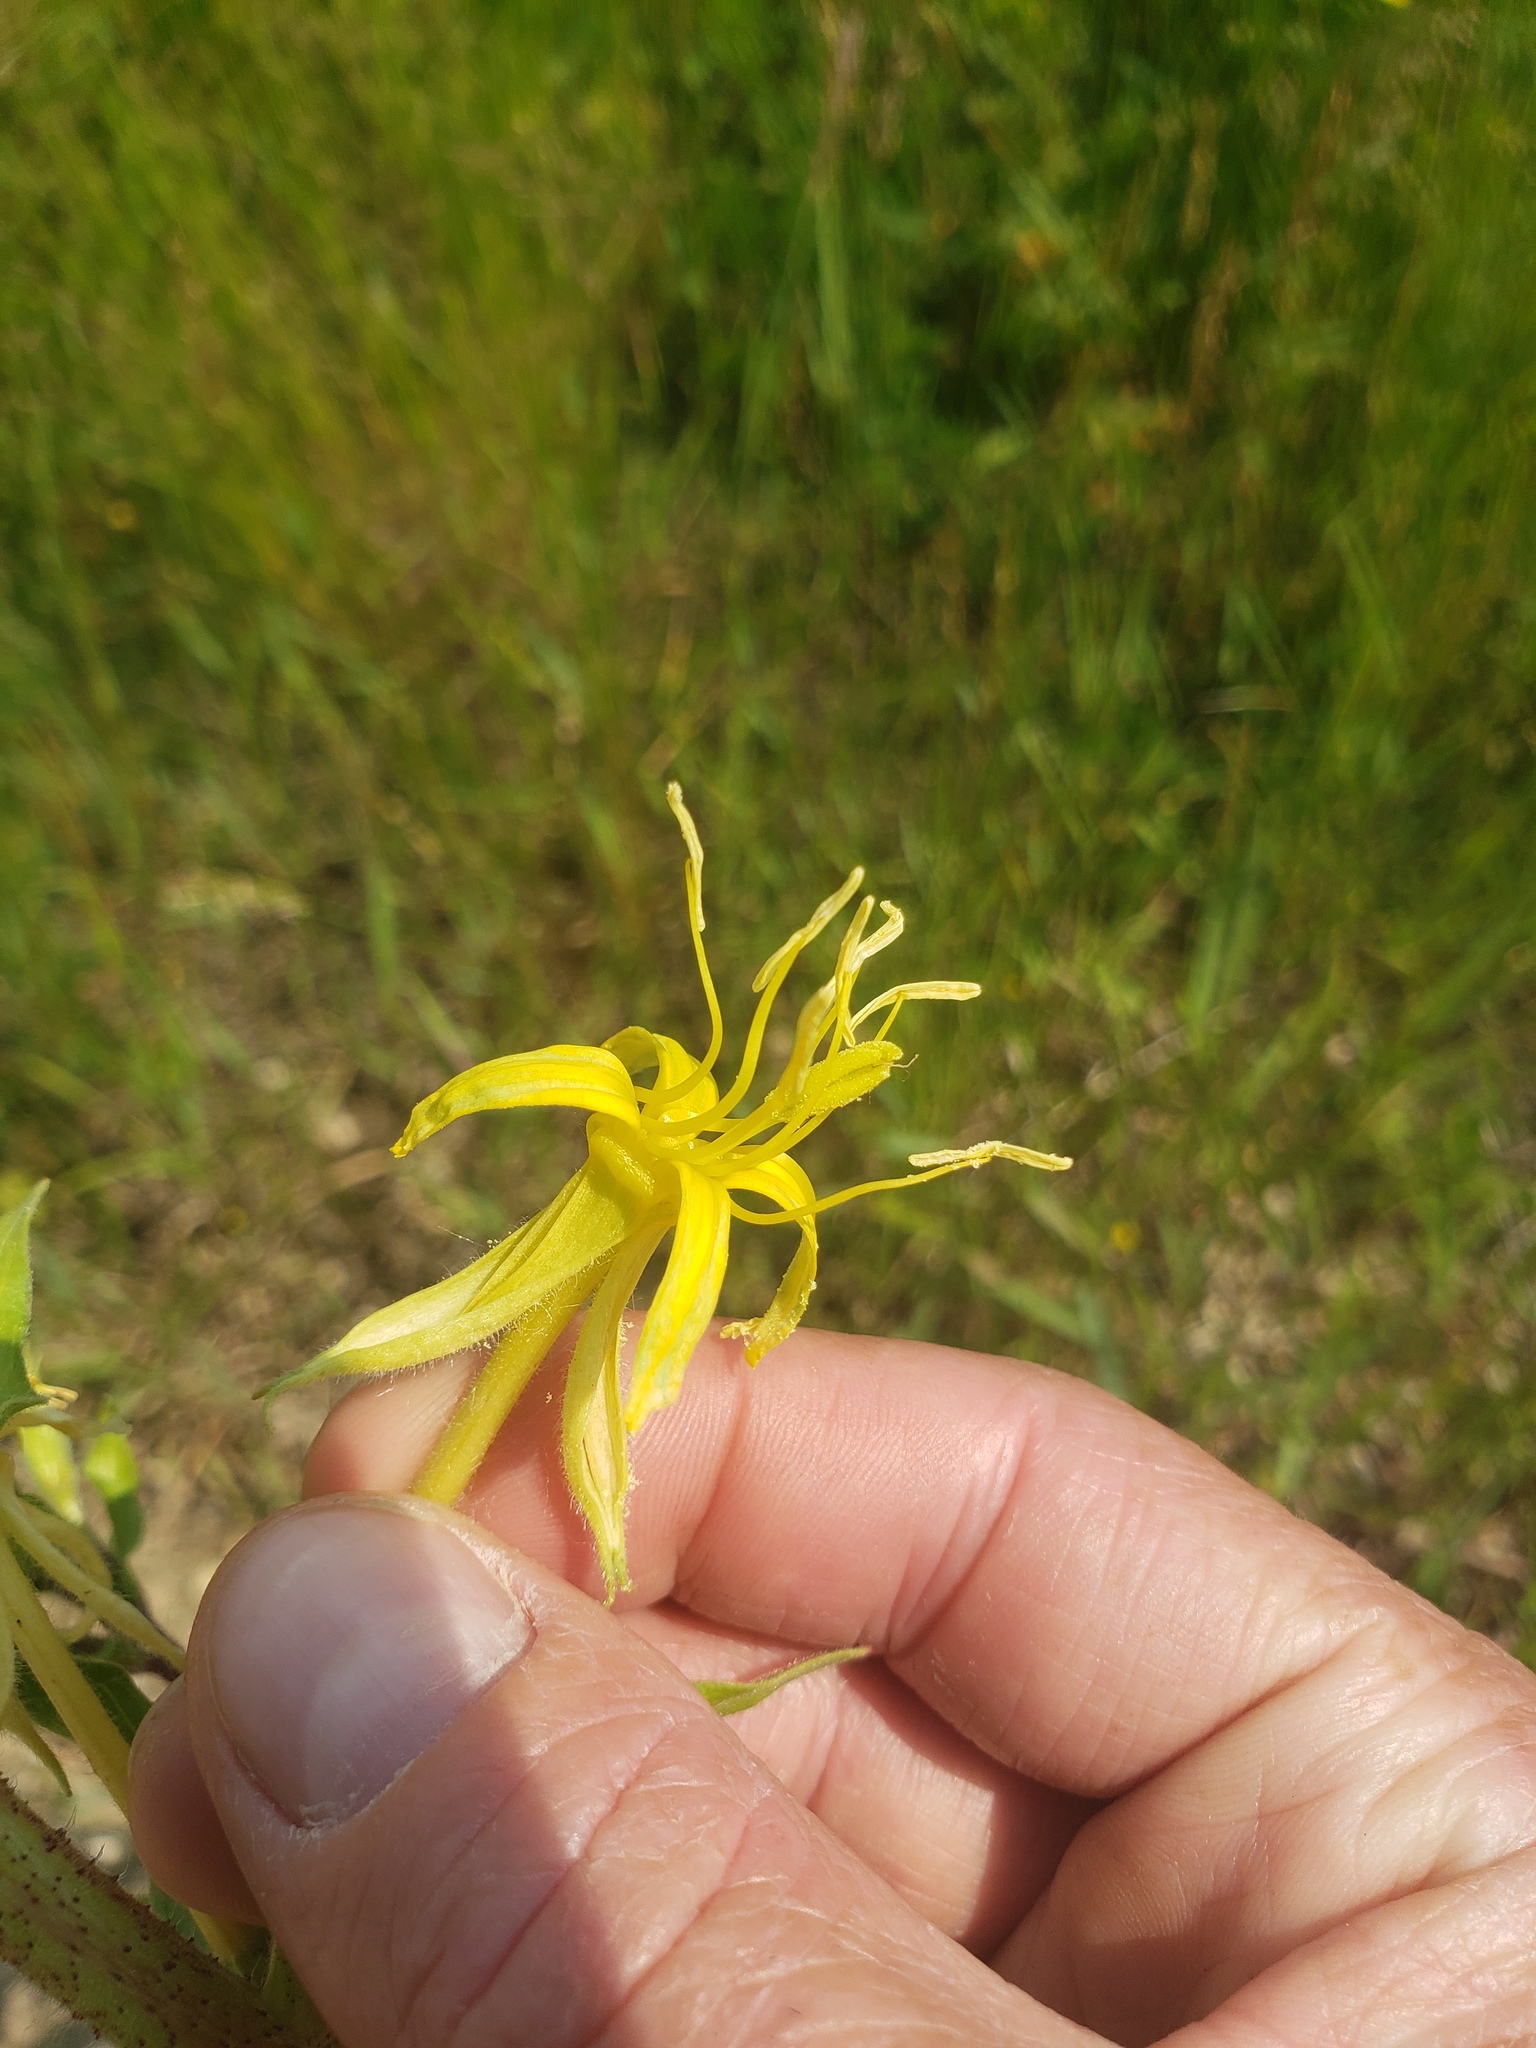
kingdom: Plantae
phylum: Tracheophyta
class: Magnoliopsida
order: Myrtales
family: Onagraceae
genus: Oenothera
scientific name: Oenothera villosa
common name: Hairy evening-primrose
